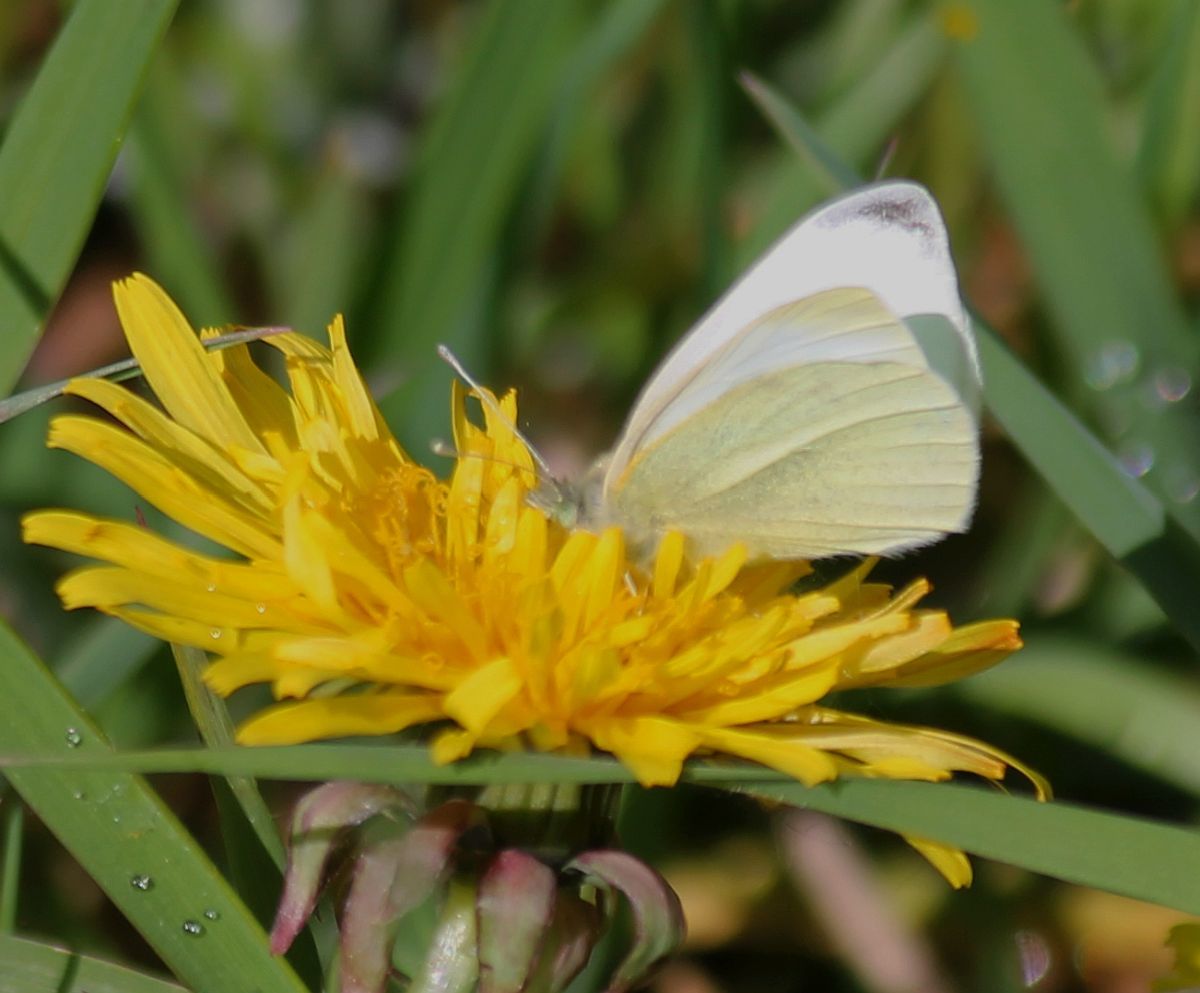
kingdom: Animalia
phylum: Arthropoda
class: Insecta
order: Lepidoptera
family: Pieridae
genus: Pieris
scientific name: Pieris rapae
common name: Small white
